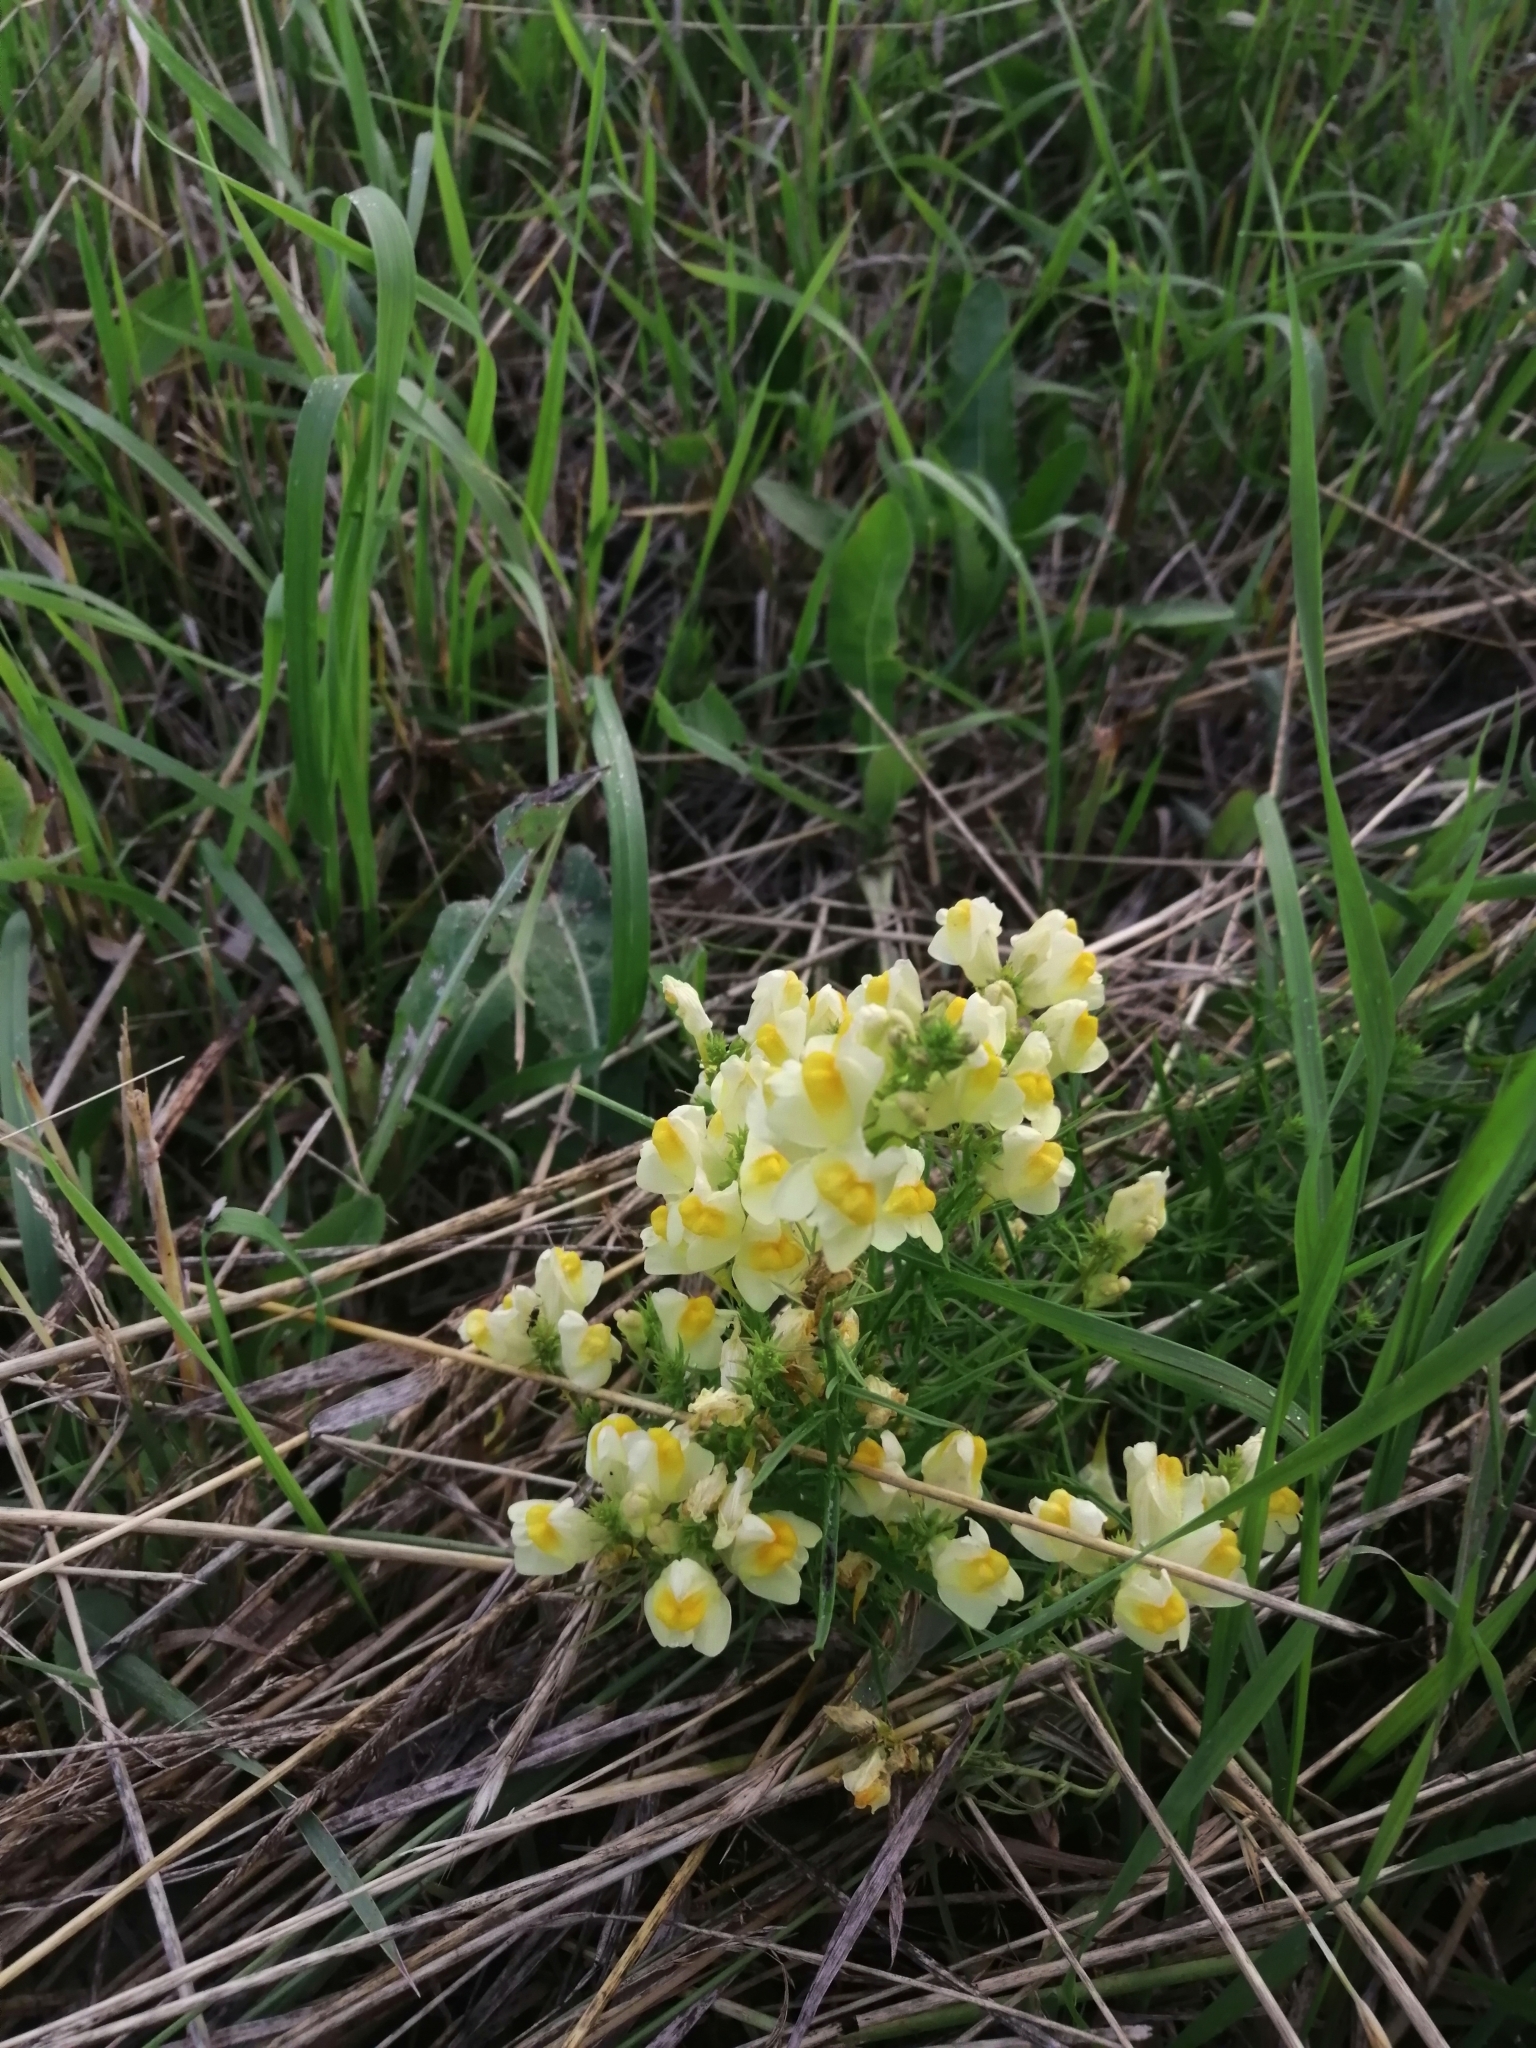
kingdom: Plantae
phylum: Tracheophyta
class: Magnoliopsida
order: Lamiales
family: Plantaginaceae
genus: Linaria
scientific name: Linaria vulgaris
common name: Butter and eggs
